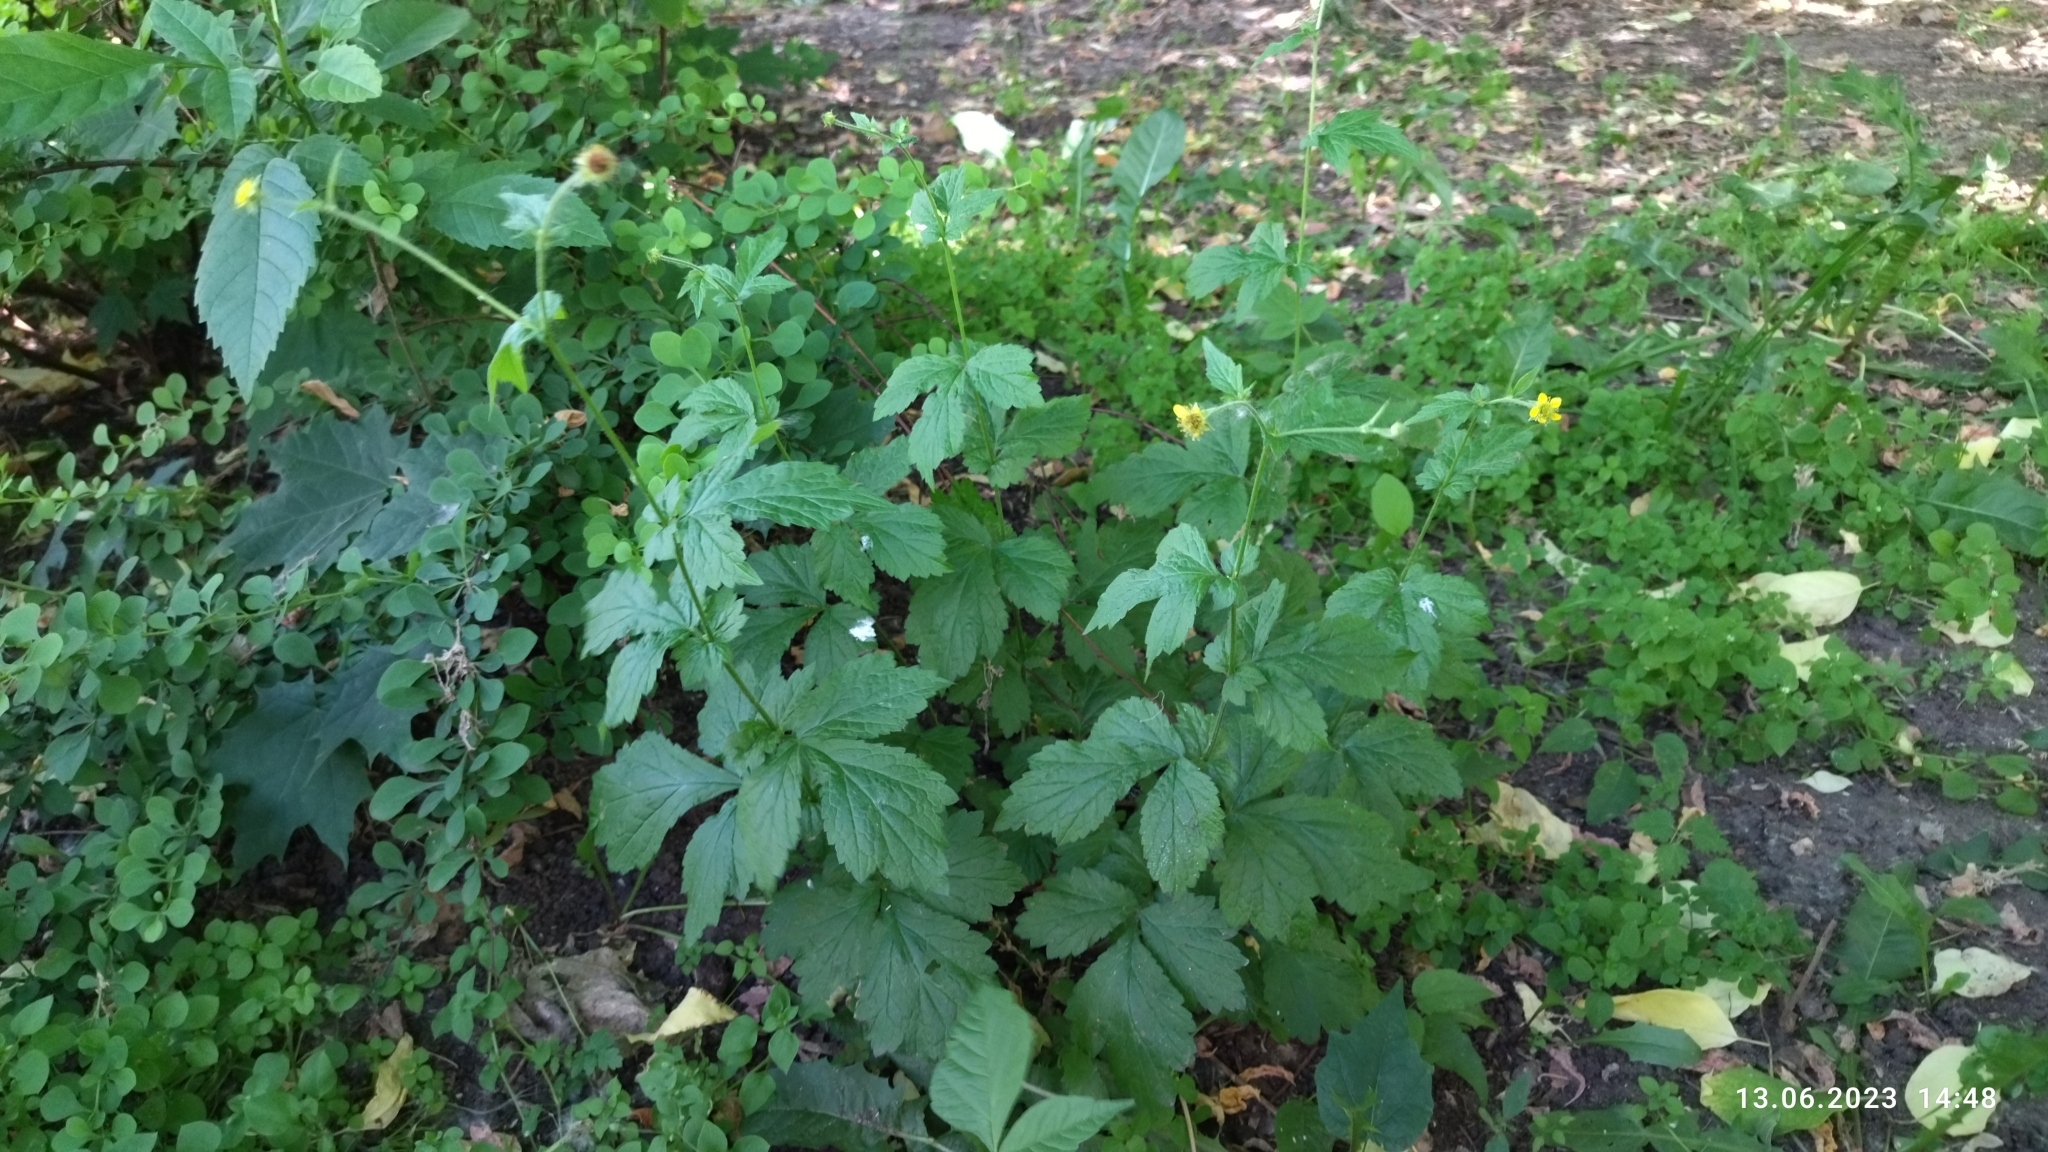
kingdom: Plantae
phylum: Tracheophyta
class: Magnoliopsida
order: Rosales
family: Rosaceae
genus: Geum
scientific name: Geum urbanum
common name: Wood avens
